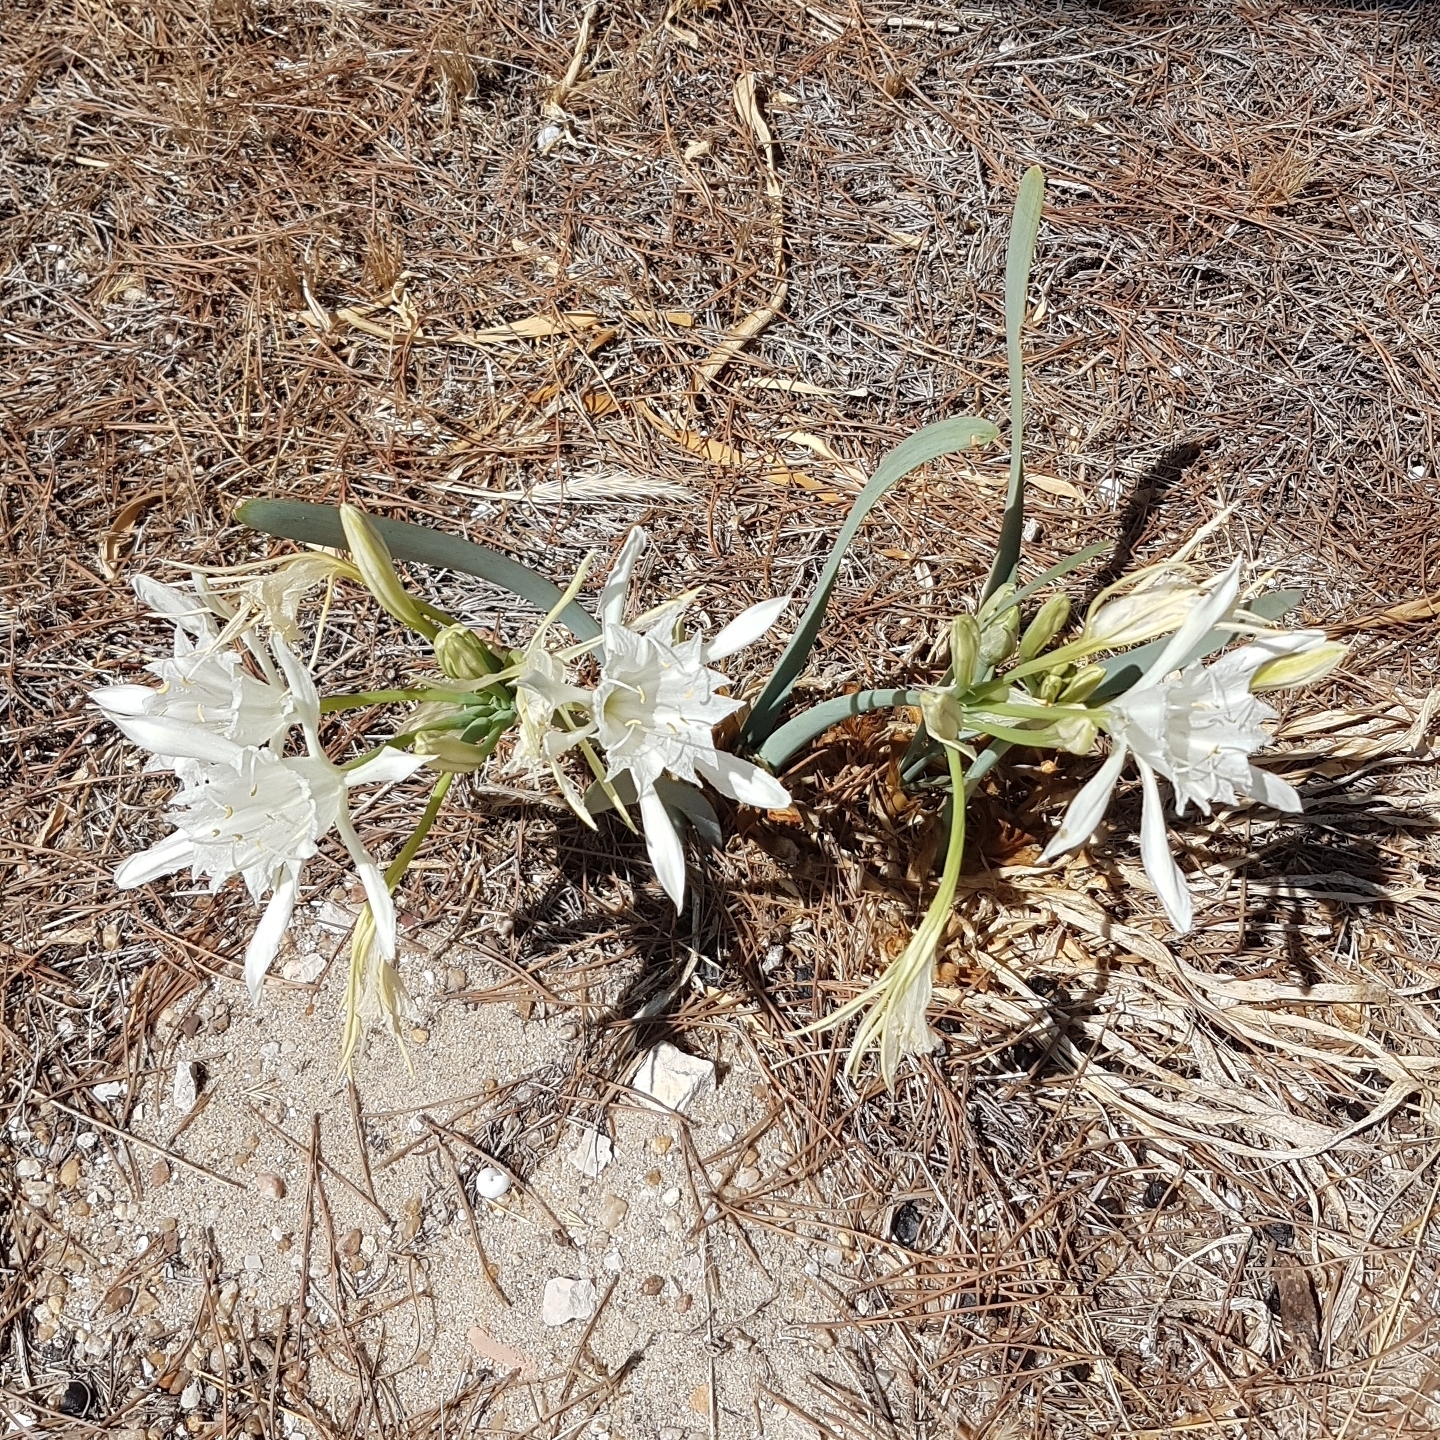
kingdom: Plantae
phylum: Tracheophyta
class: Liliopsida
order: Asparagales
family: Amaryllidaceae
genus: Pancratium
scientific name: Pancratium maritimum
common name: Sea-daffodil
